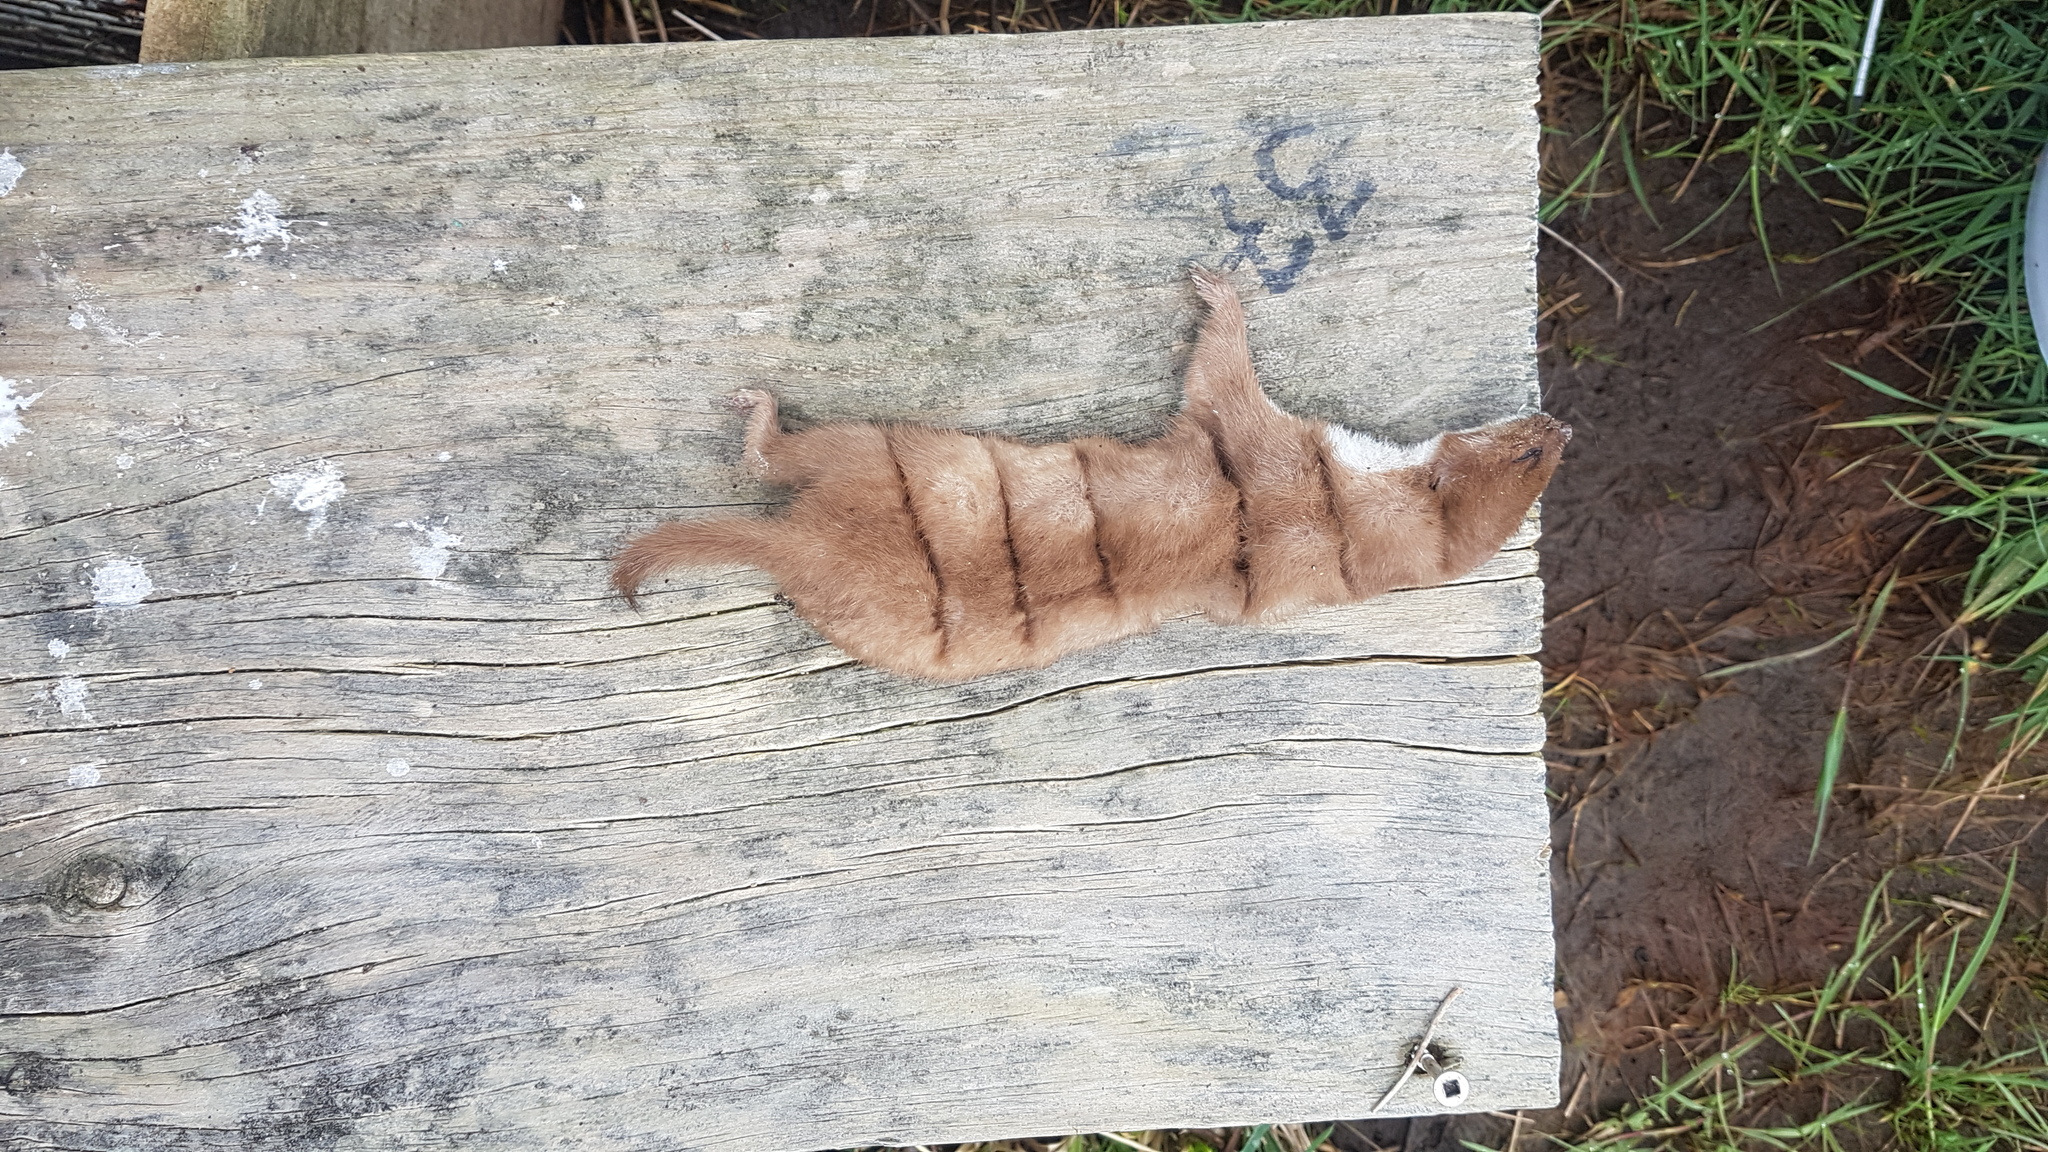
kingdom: Animalia
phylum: Chordata
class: Mammalia
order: Carnivora
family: Mustelidae
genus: Mustela
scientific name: Mustela nivalis
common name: Least weasel
